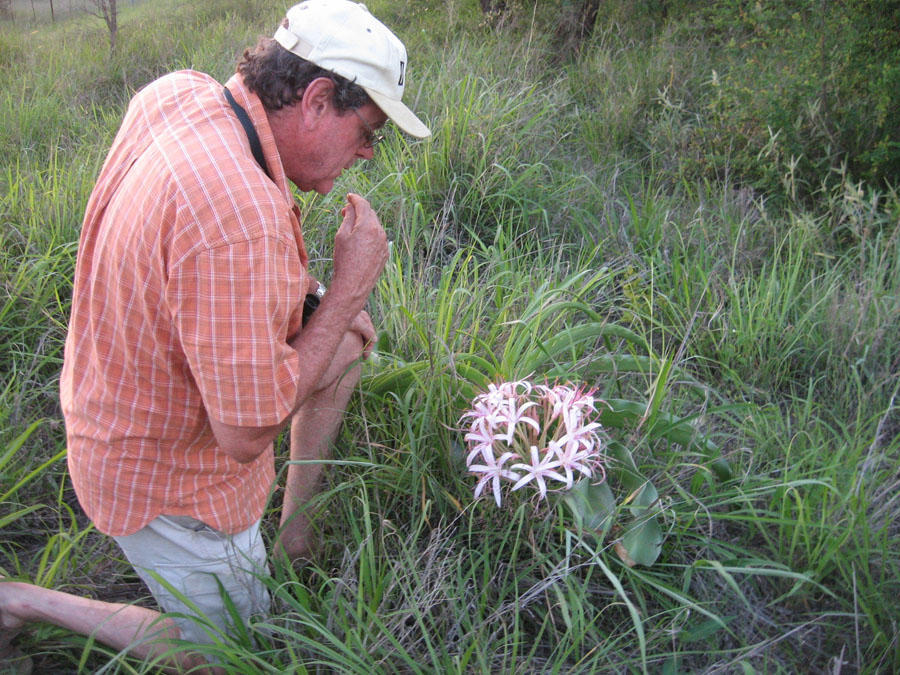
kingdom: Plantae
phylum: Tracheophyta
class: Liliopsida
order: Asparagales
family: Amaryllidaceae
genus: Crinum
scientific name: Crinum buphanoides
